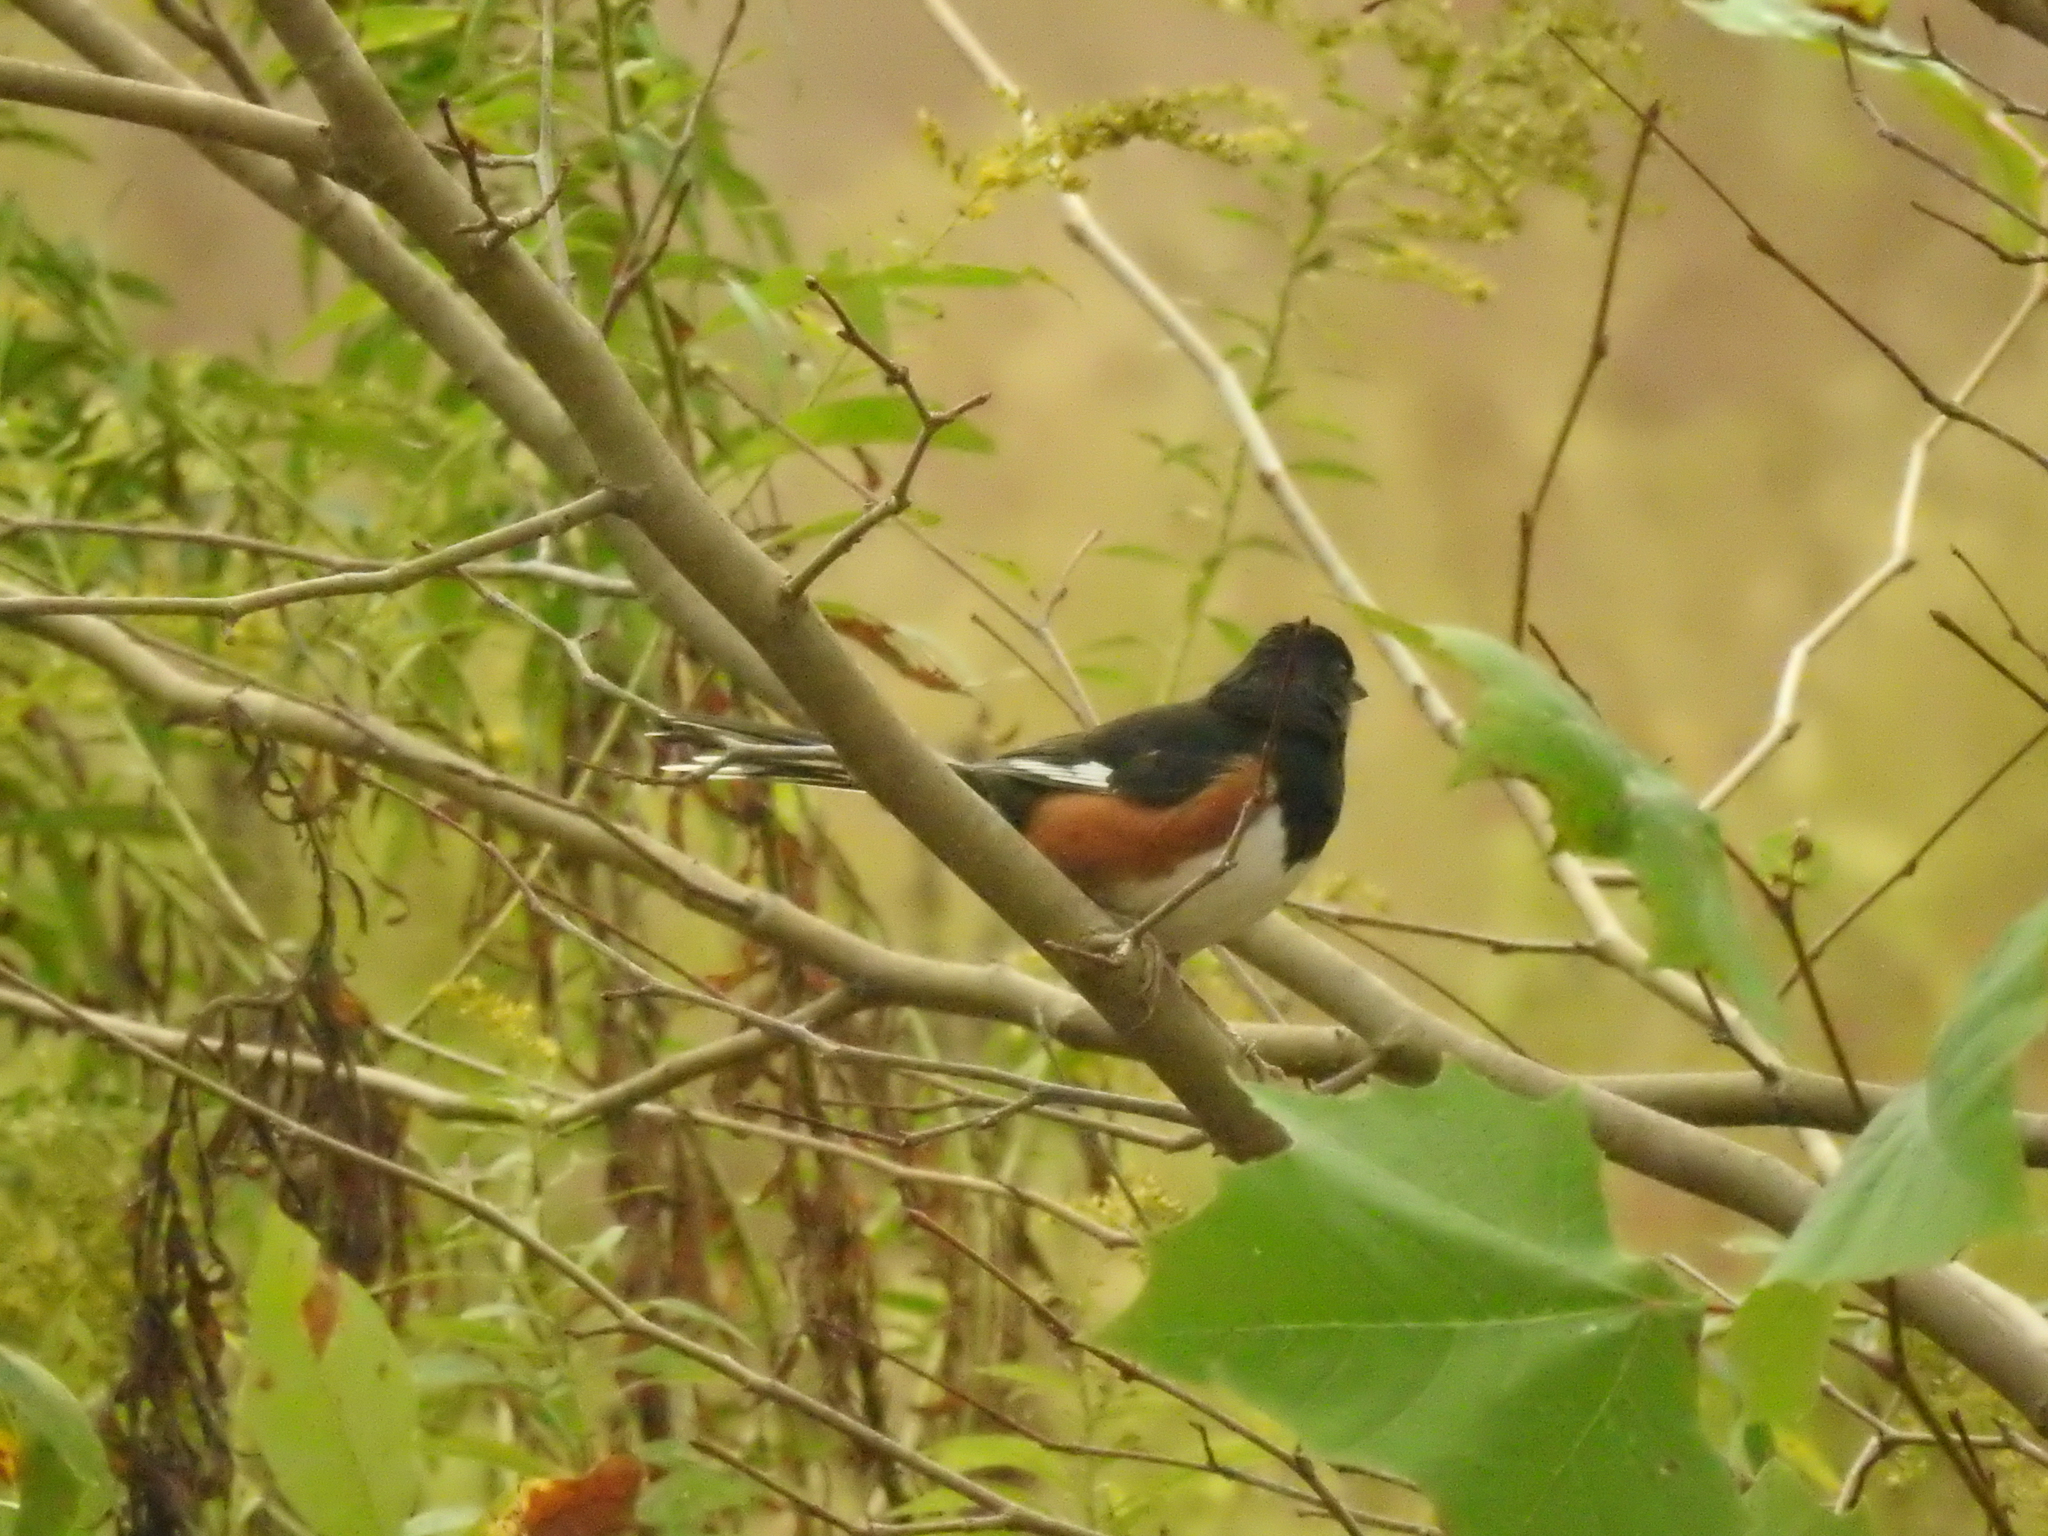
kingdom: Animalia
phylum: Chordata
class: Aves
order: Passeriformes
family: Passerellidae
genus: Pipilo
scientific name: Pipilo erythrophthalmus
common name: Eastern towhee
